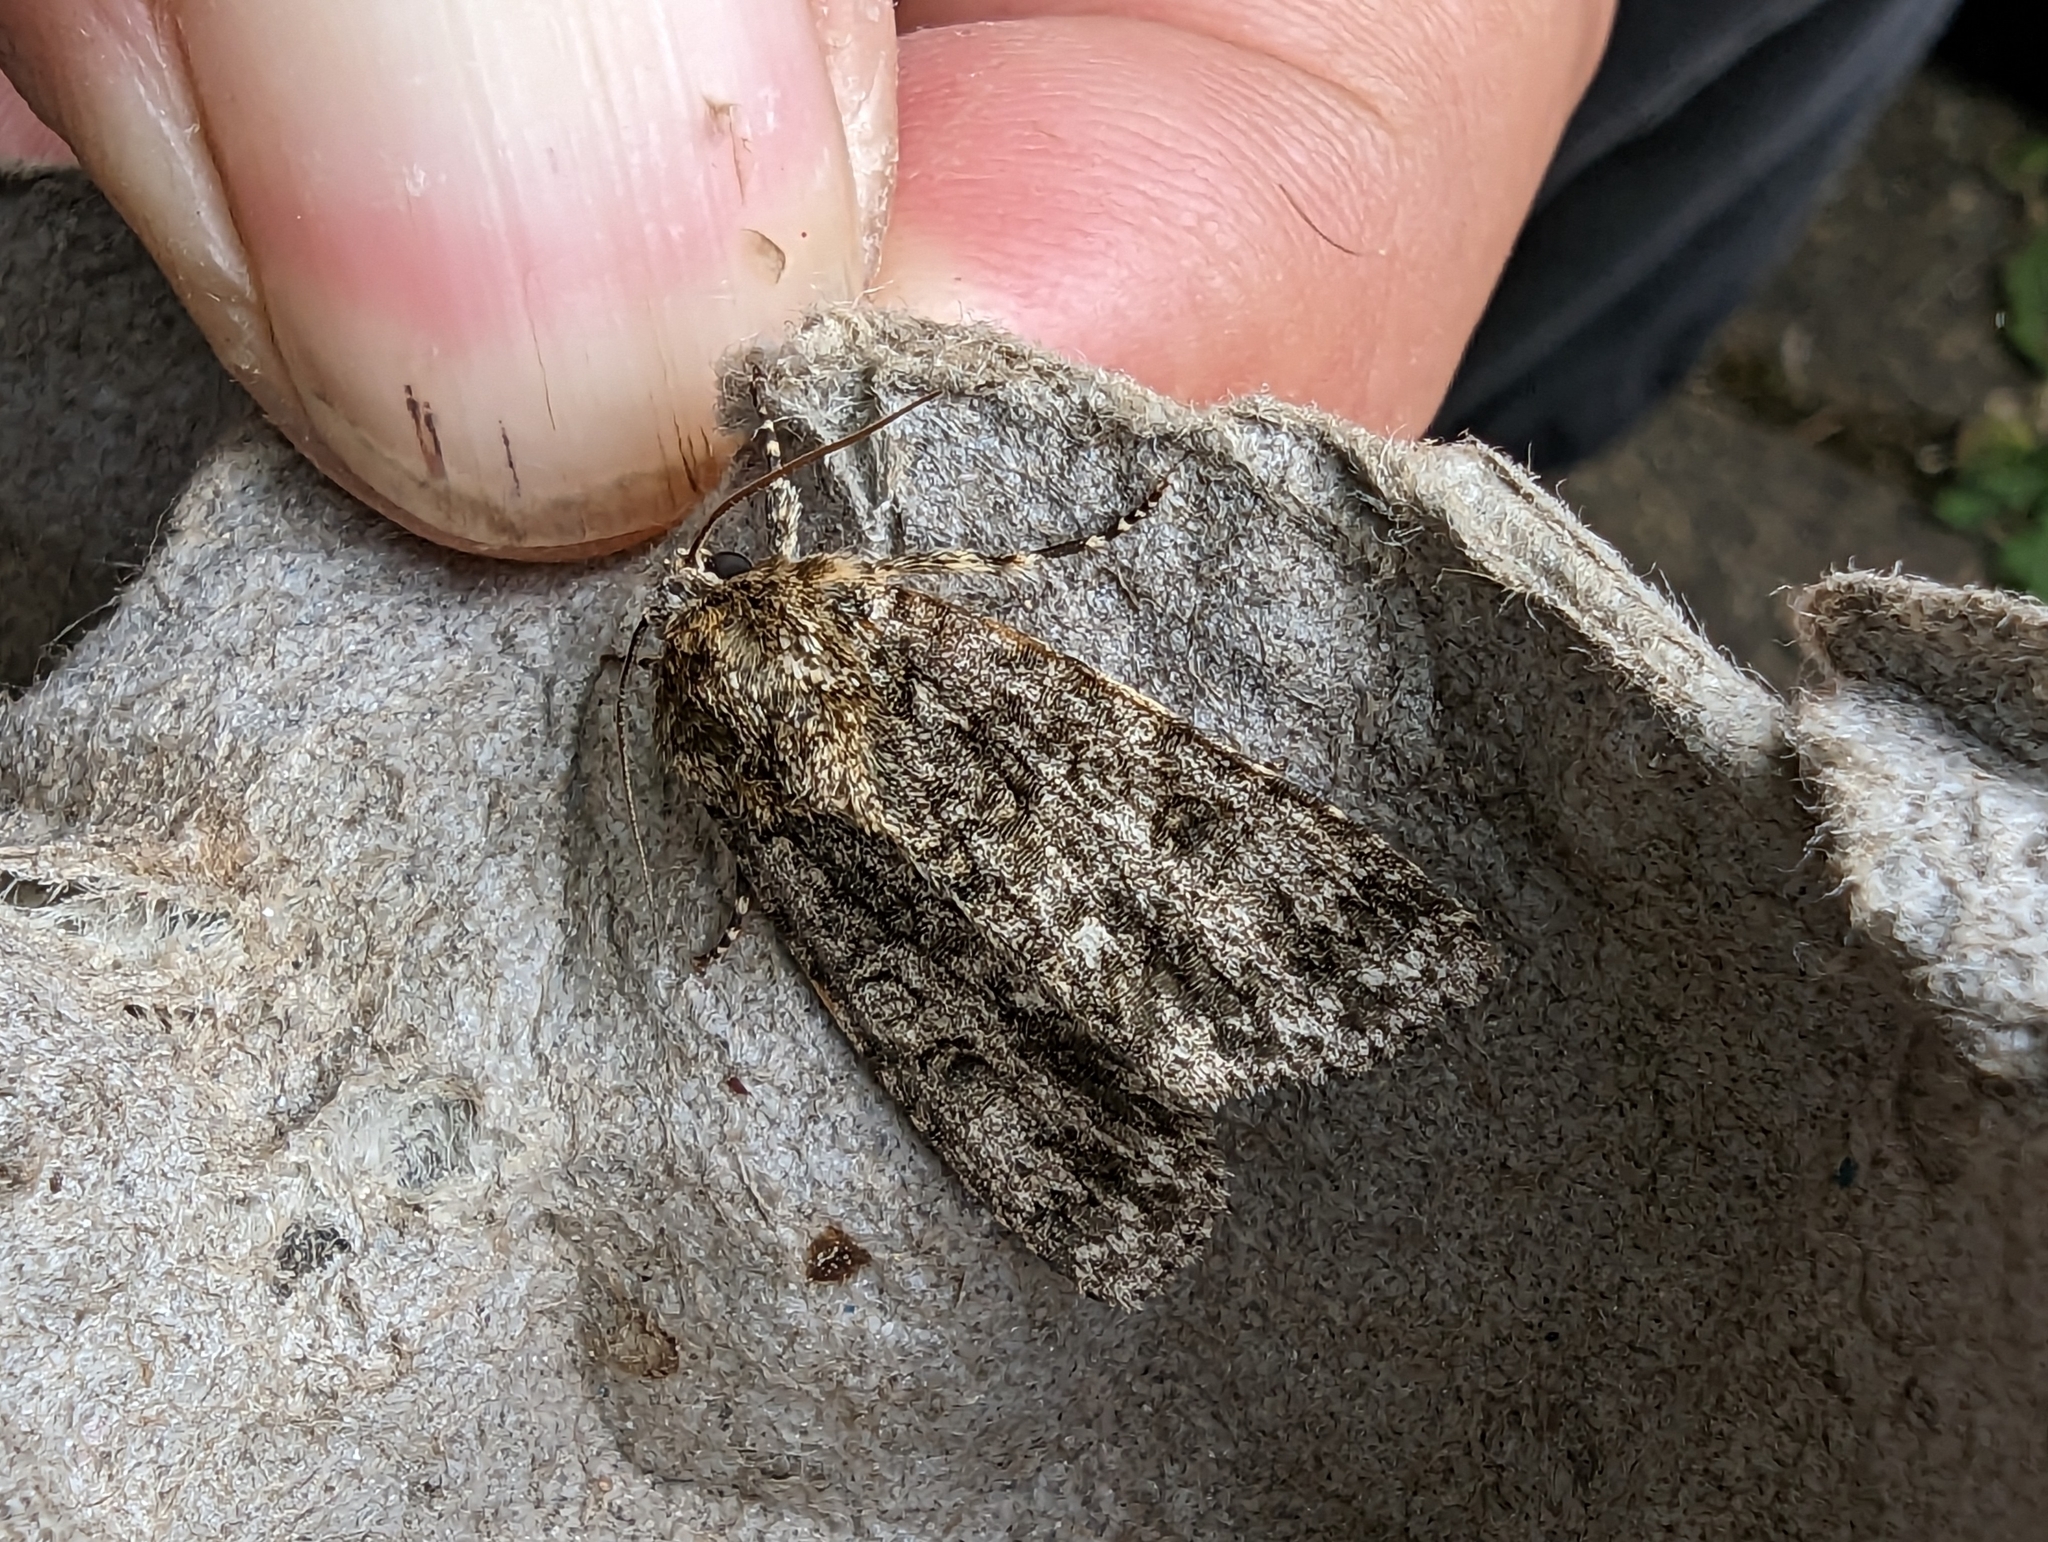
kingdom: Animalia
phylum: Arthropoda
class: Insecta
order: Lepidoptera
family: Noctuidae
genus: Acronicta
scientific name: Acronicta rumicis
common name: Knot grass
